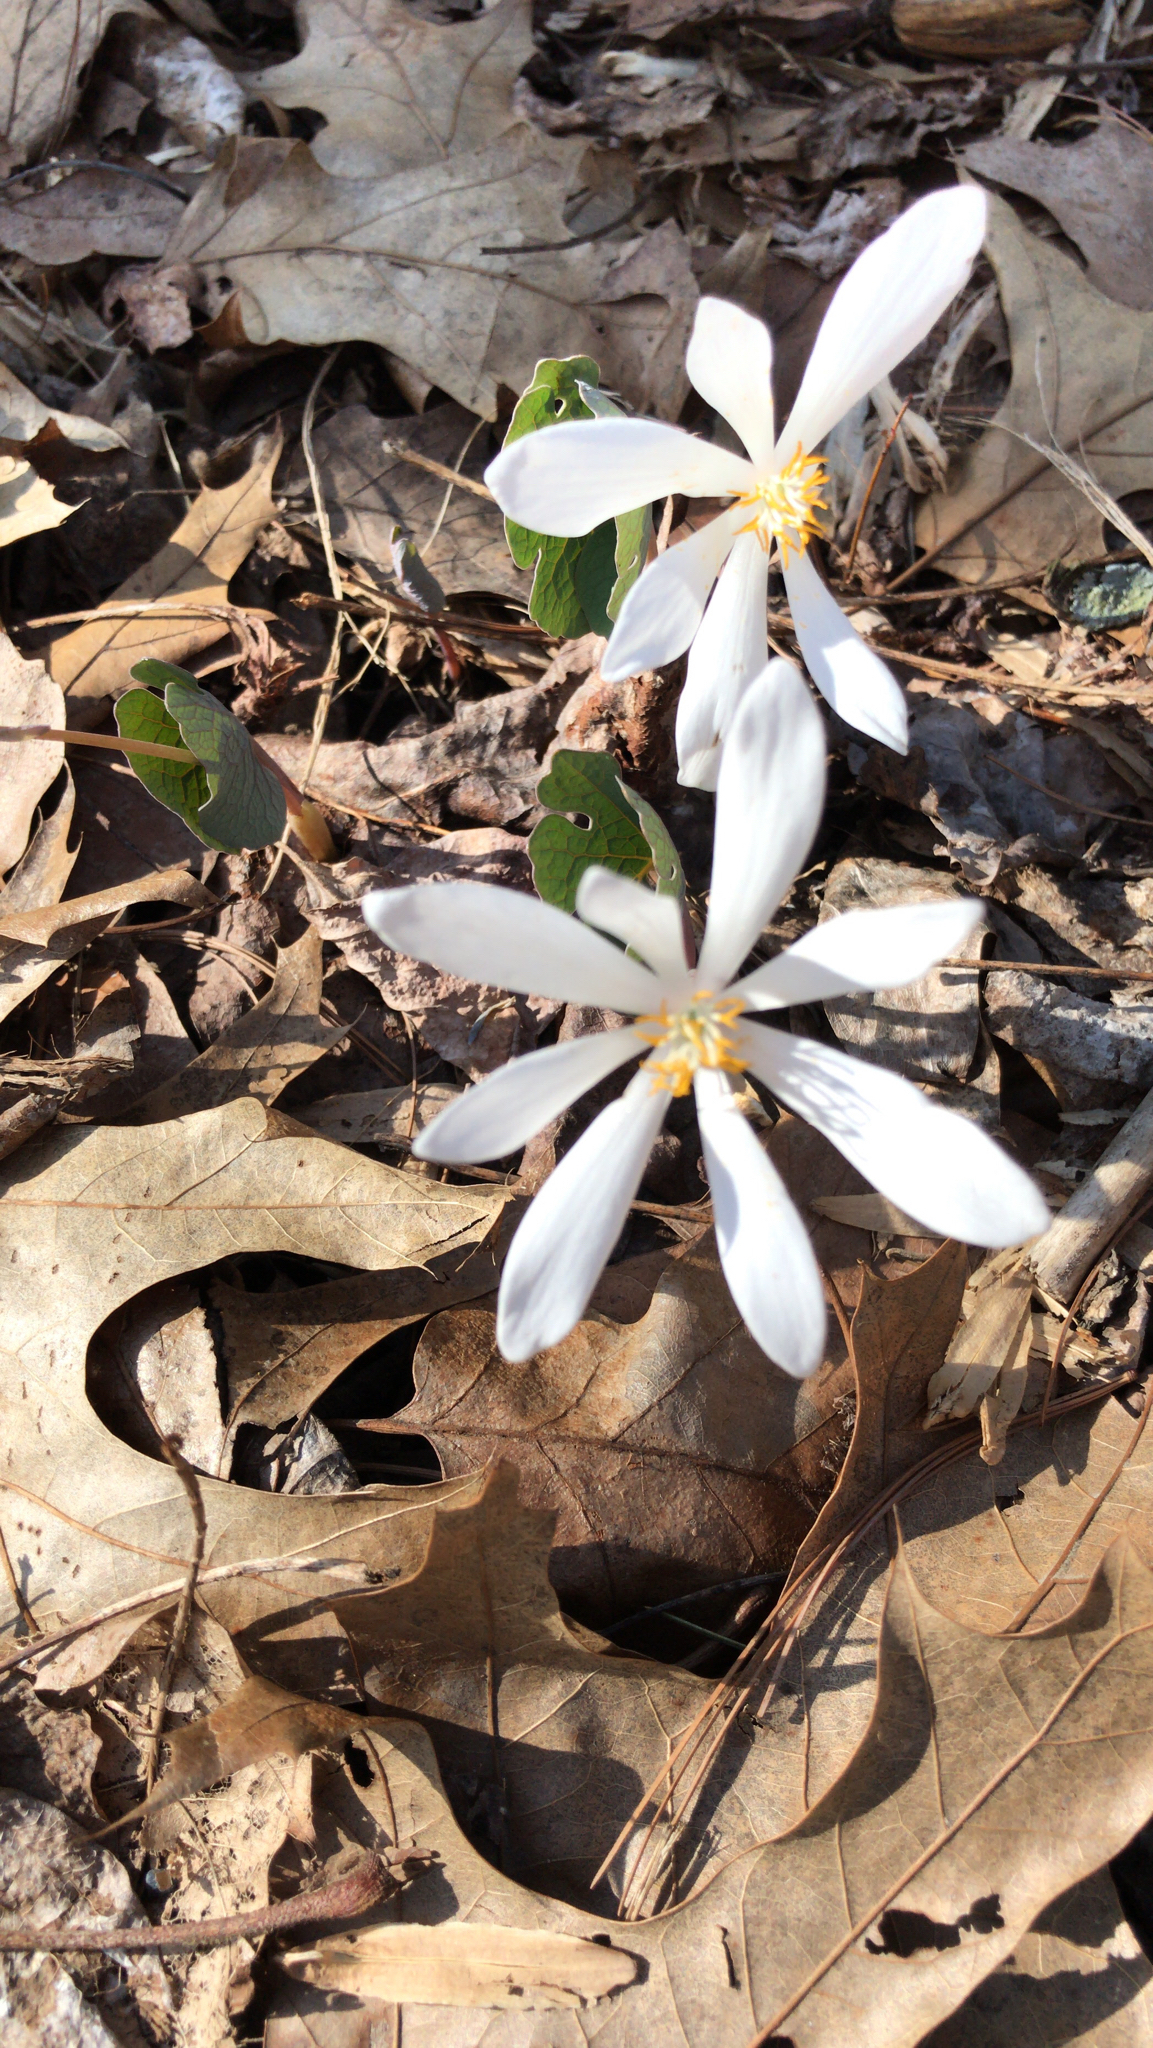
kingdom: Plantae
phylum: Tracheophyta
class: Magnoliopsida
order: Ranunculales
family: Papaveraceae
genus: Sanguinaria
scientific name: Sanguinaria canadensis
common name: Bloodroot
